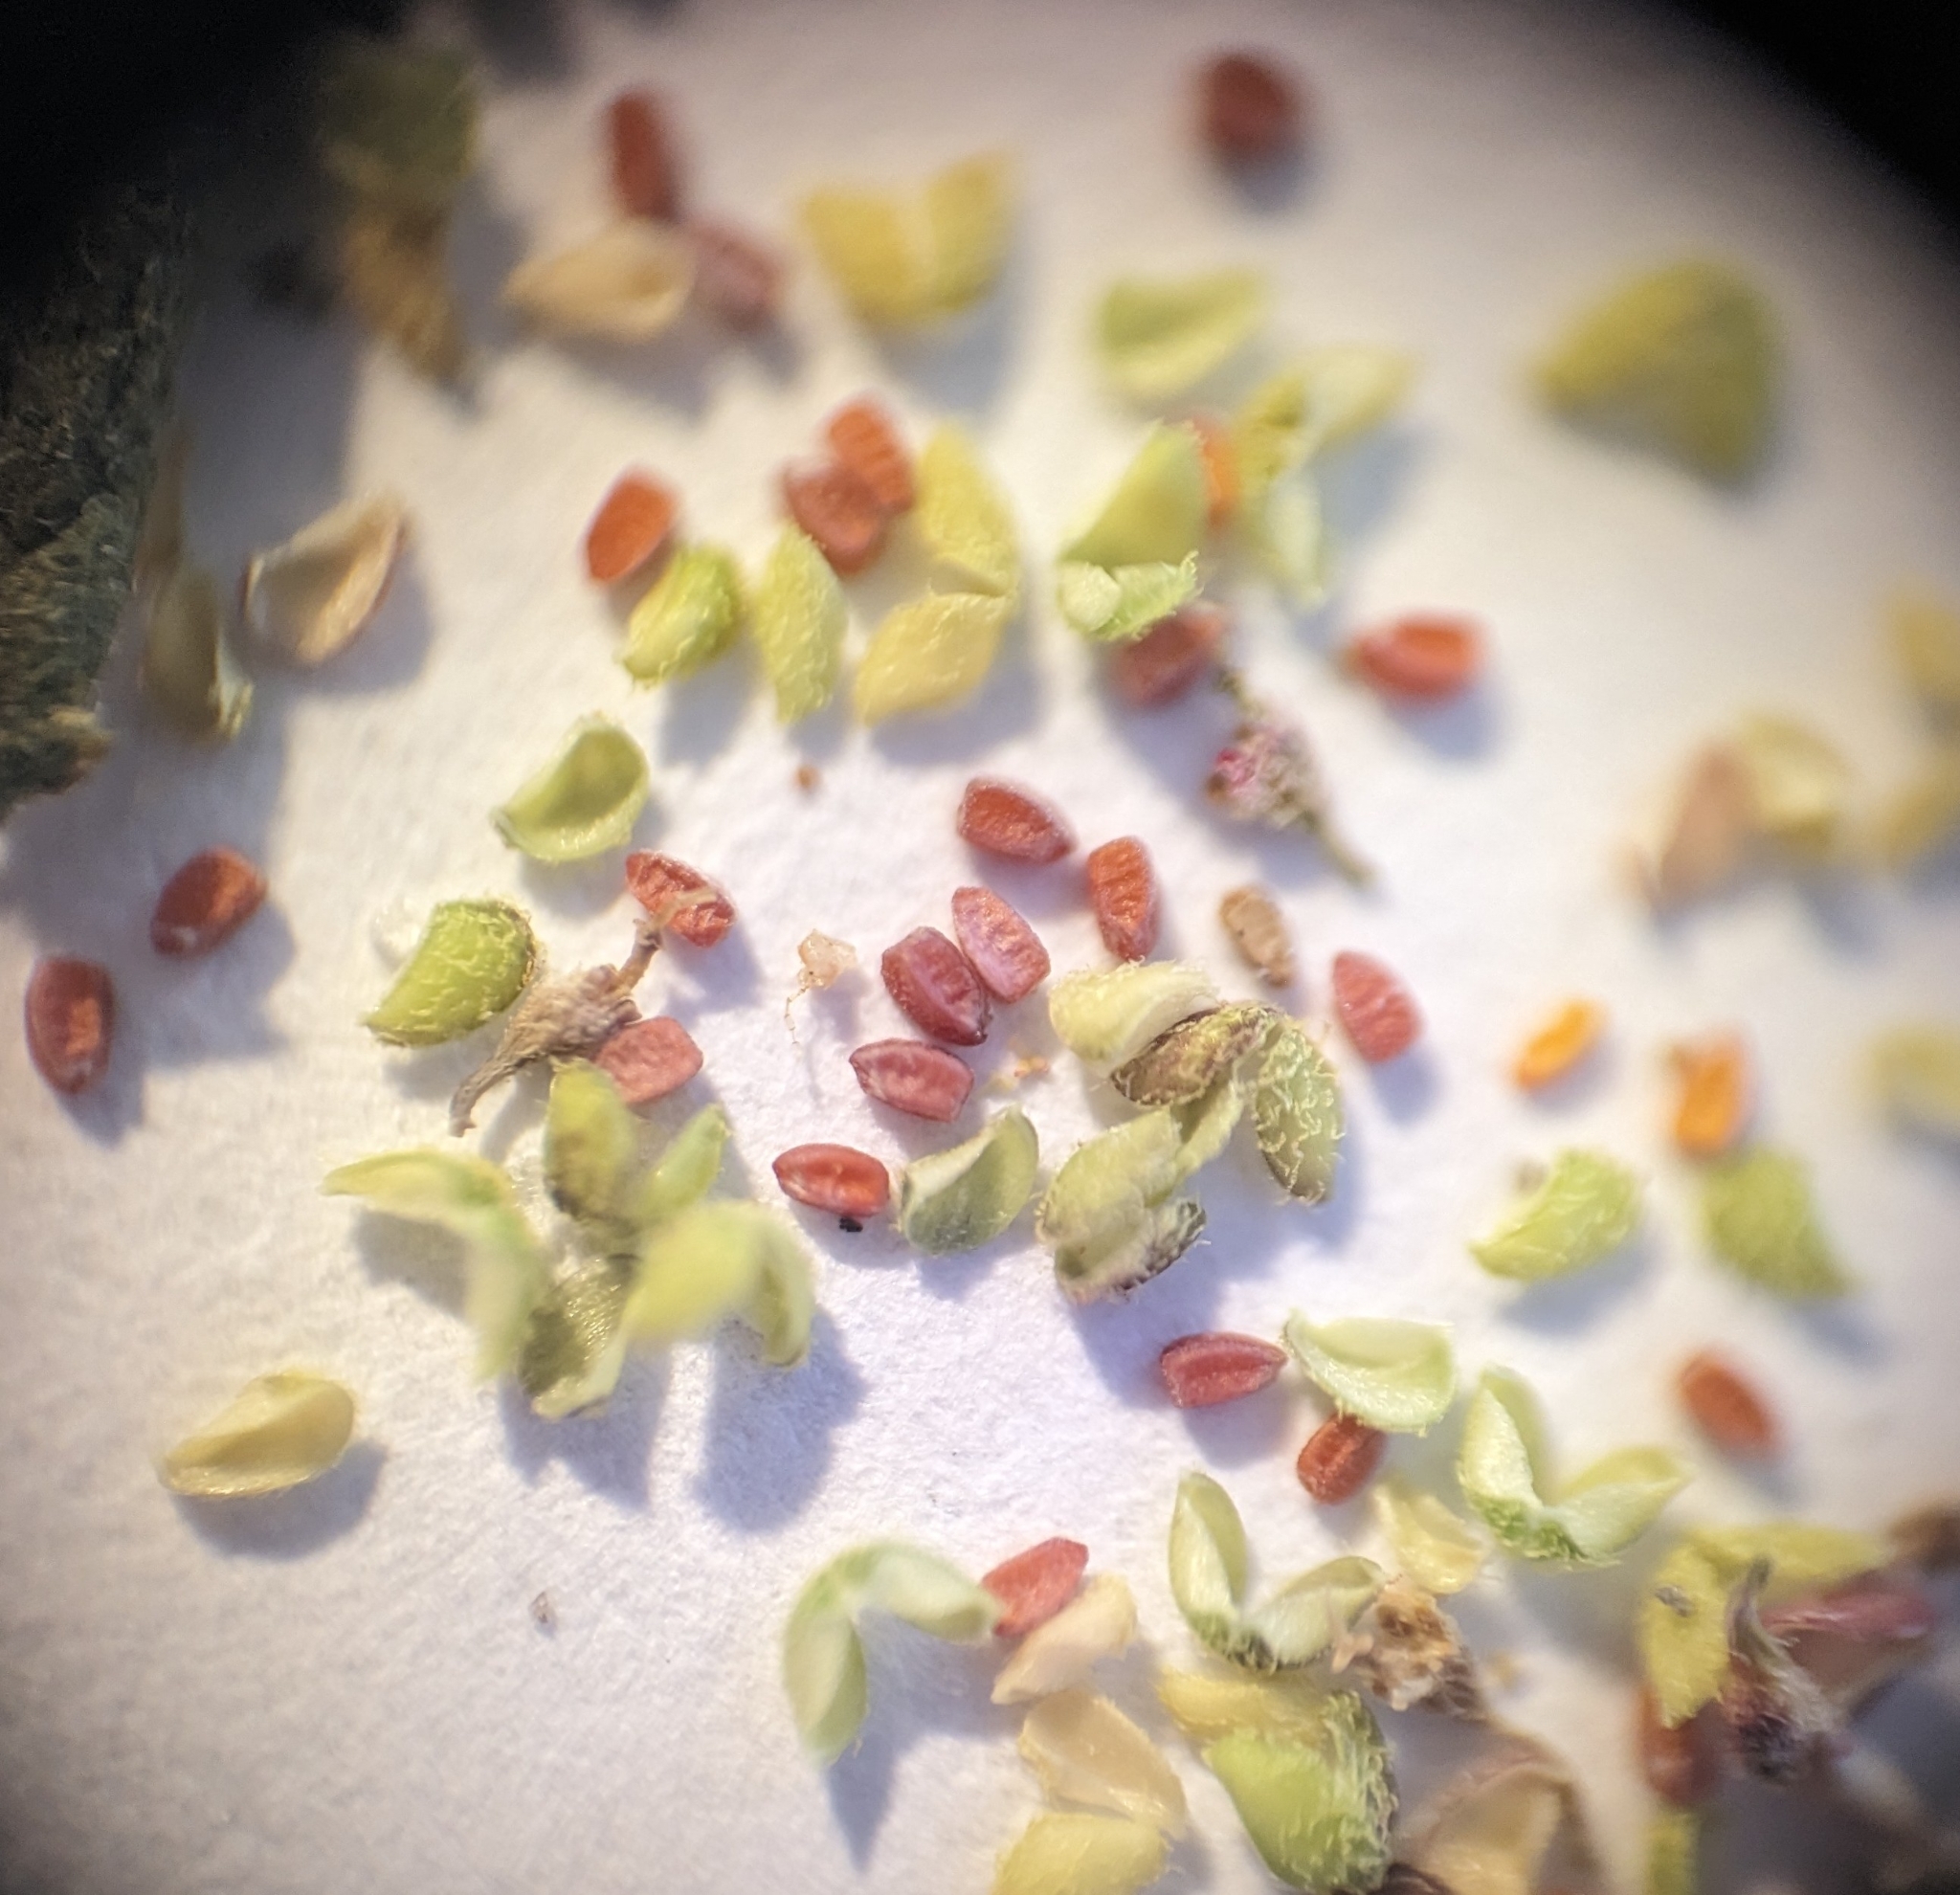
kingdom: Plantae
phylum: Tracheophyta
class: Magnoliopsida
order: Malpighiales
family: Euphorbiaceae
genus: Euphorbia
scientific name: Euphorbia hirta
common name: Pillpod sandmat
